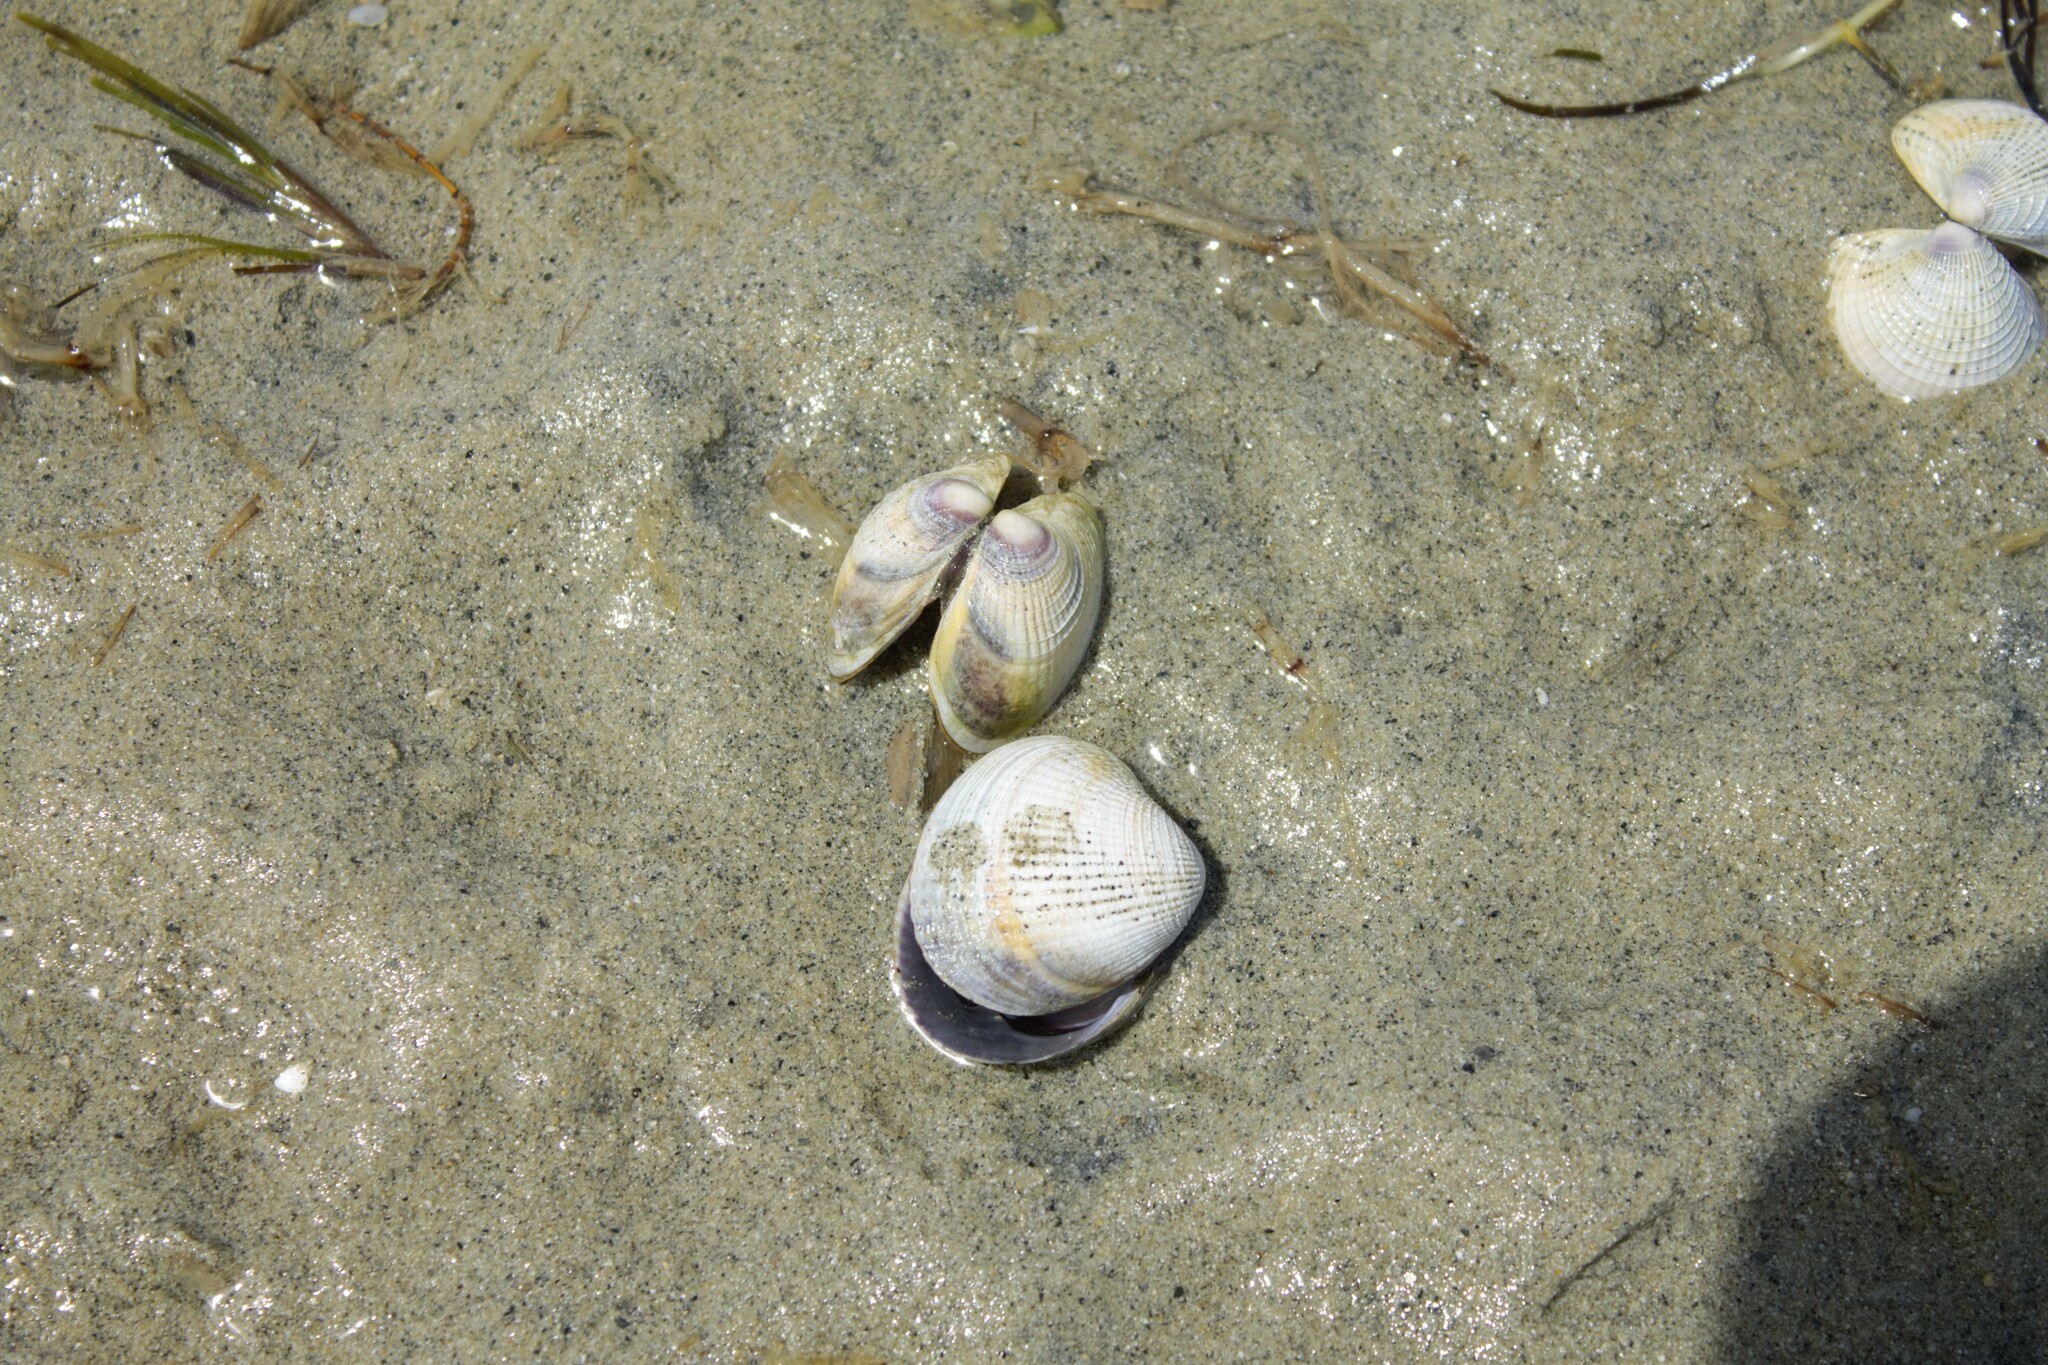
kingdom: Animalia
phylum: Mollusca
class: Bivalvia
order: Venerida
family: Veneridae
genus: Austrovenus
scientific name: Austrovenus stutchburyi
